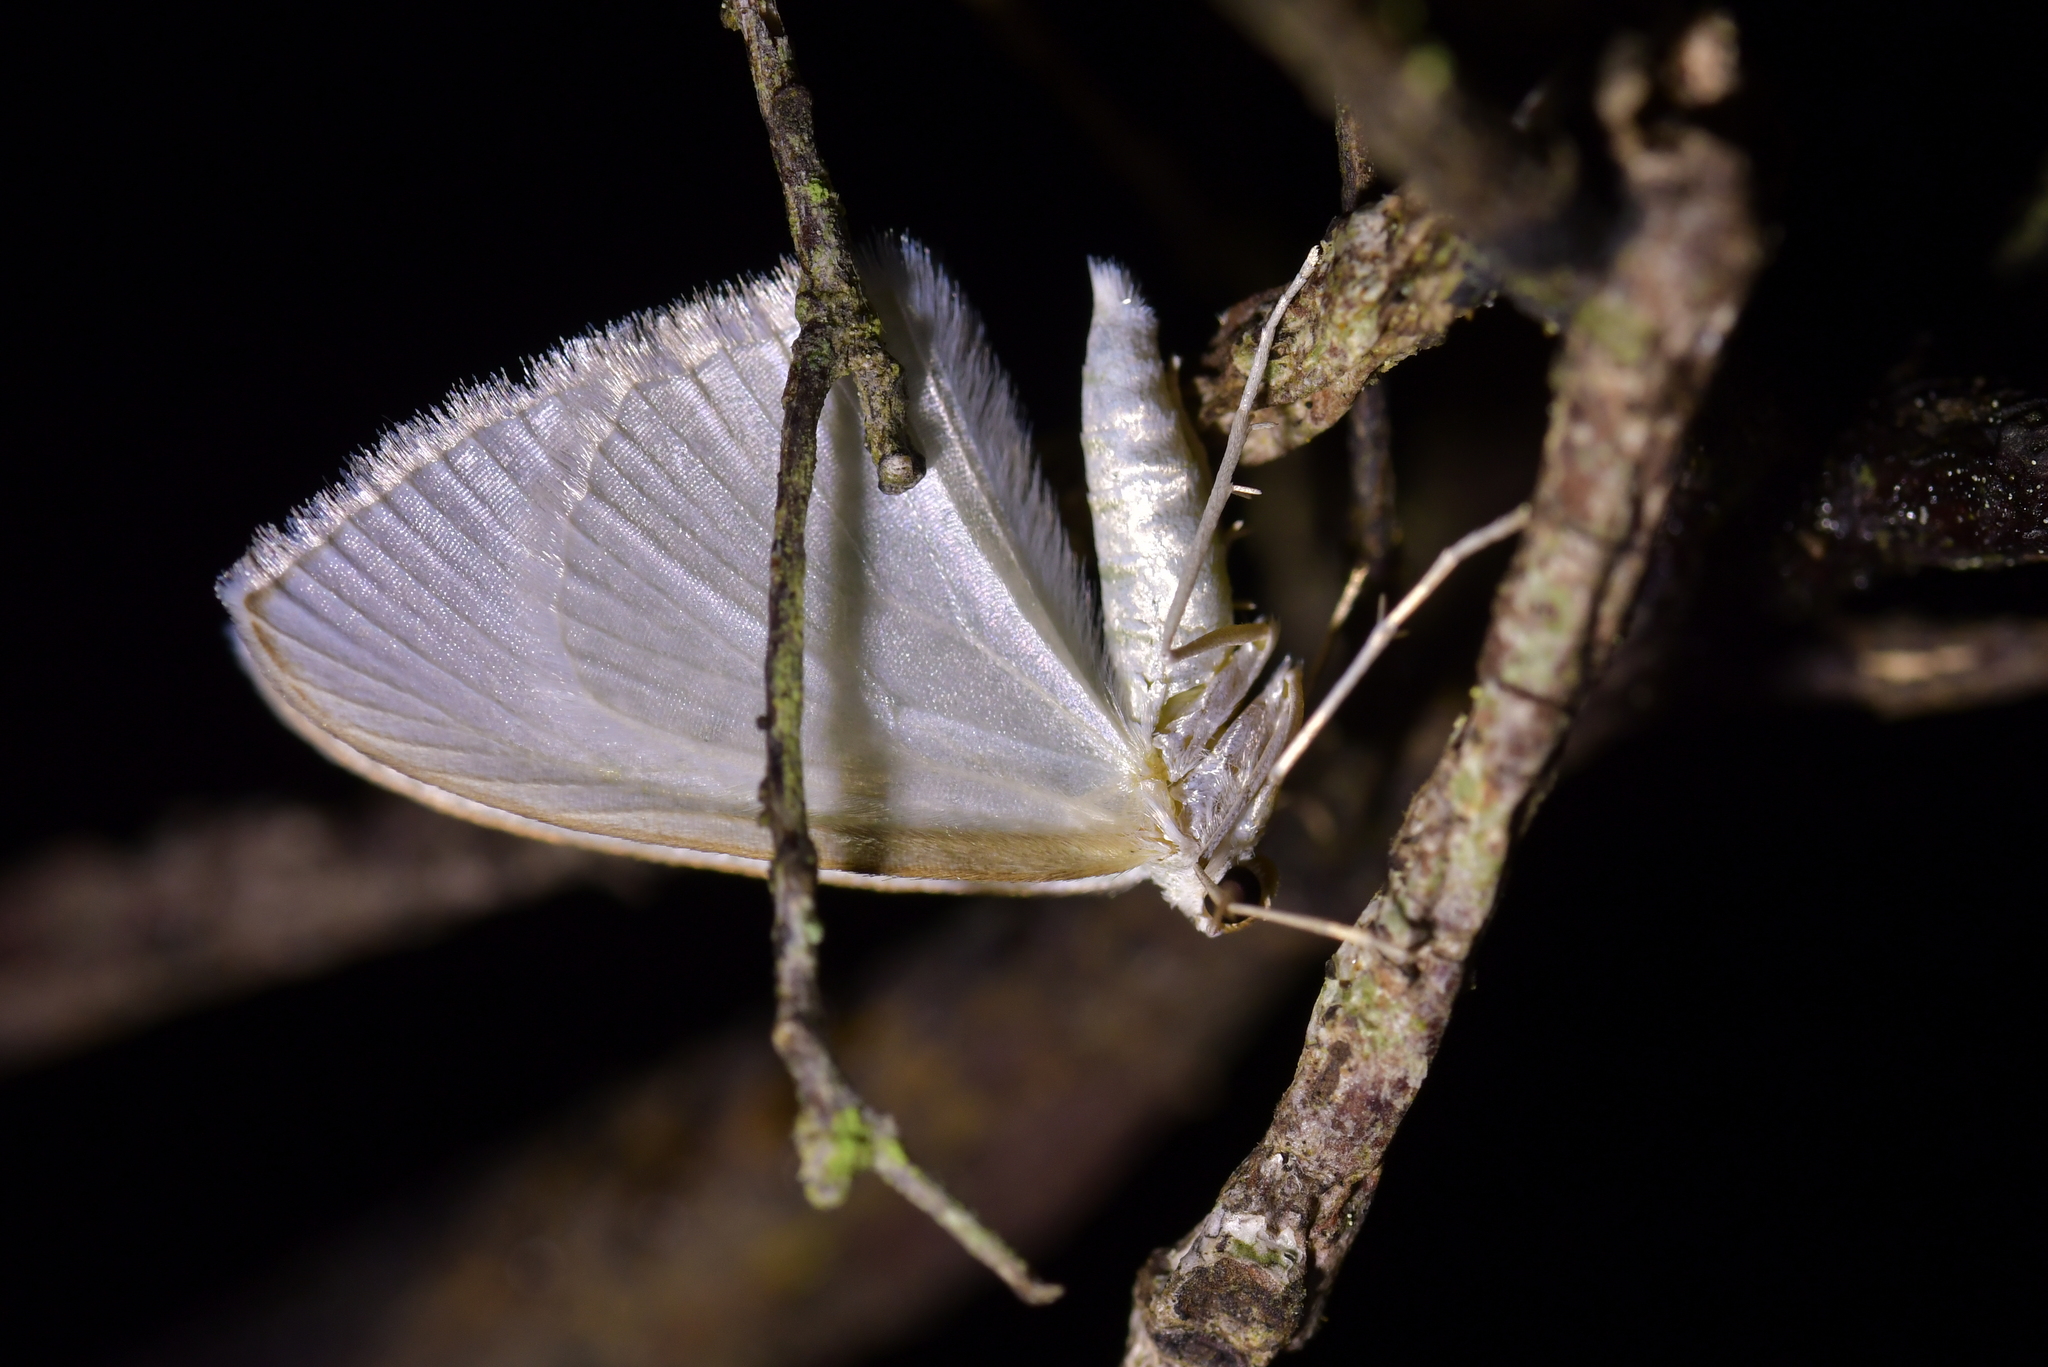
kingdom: Animalia
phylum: Arthropoda
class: Insecta
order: Lepidoptera
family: Geometridae
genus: Poecilasthena
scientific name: Poecilasthena pulchraria
